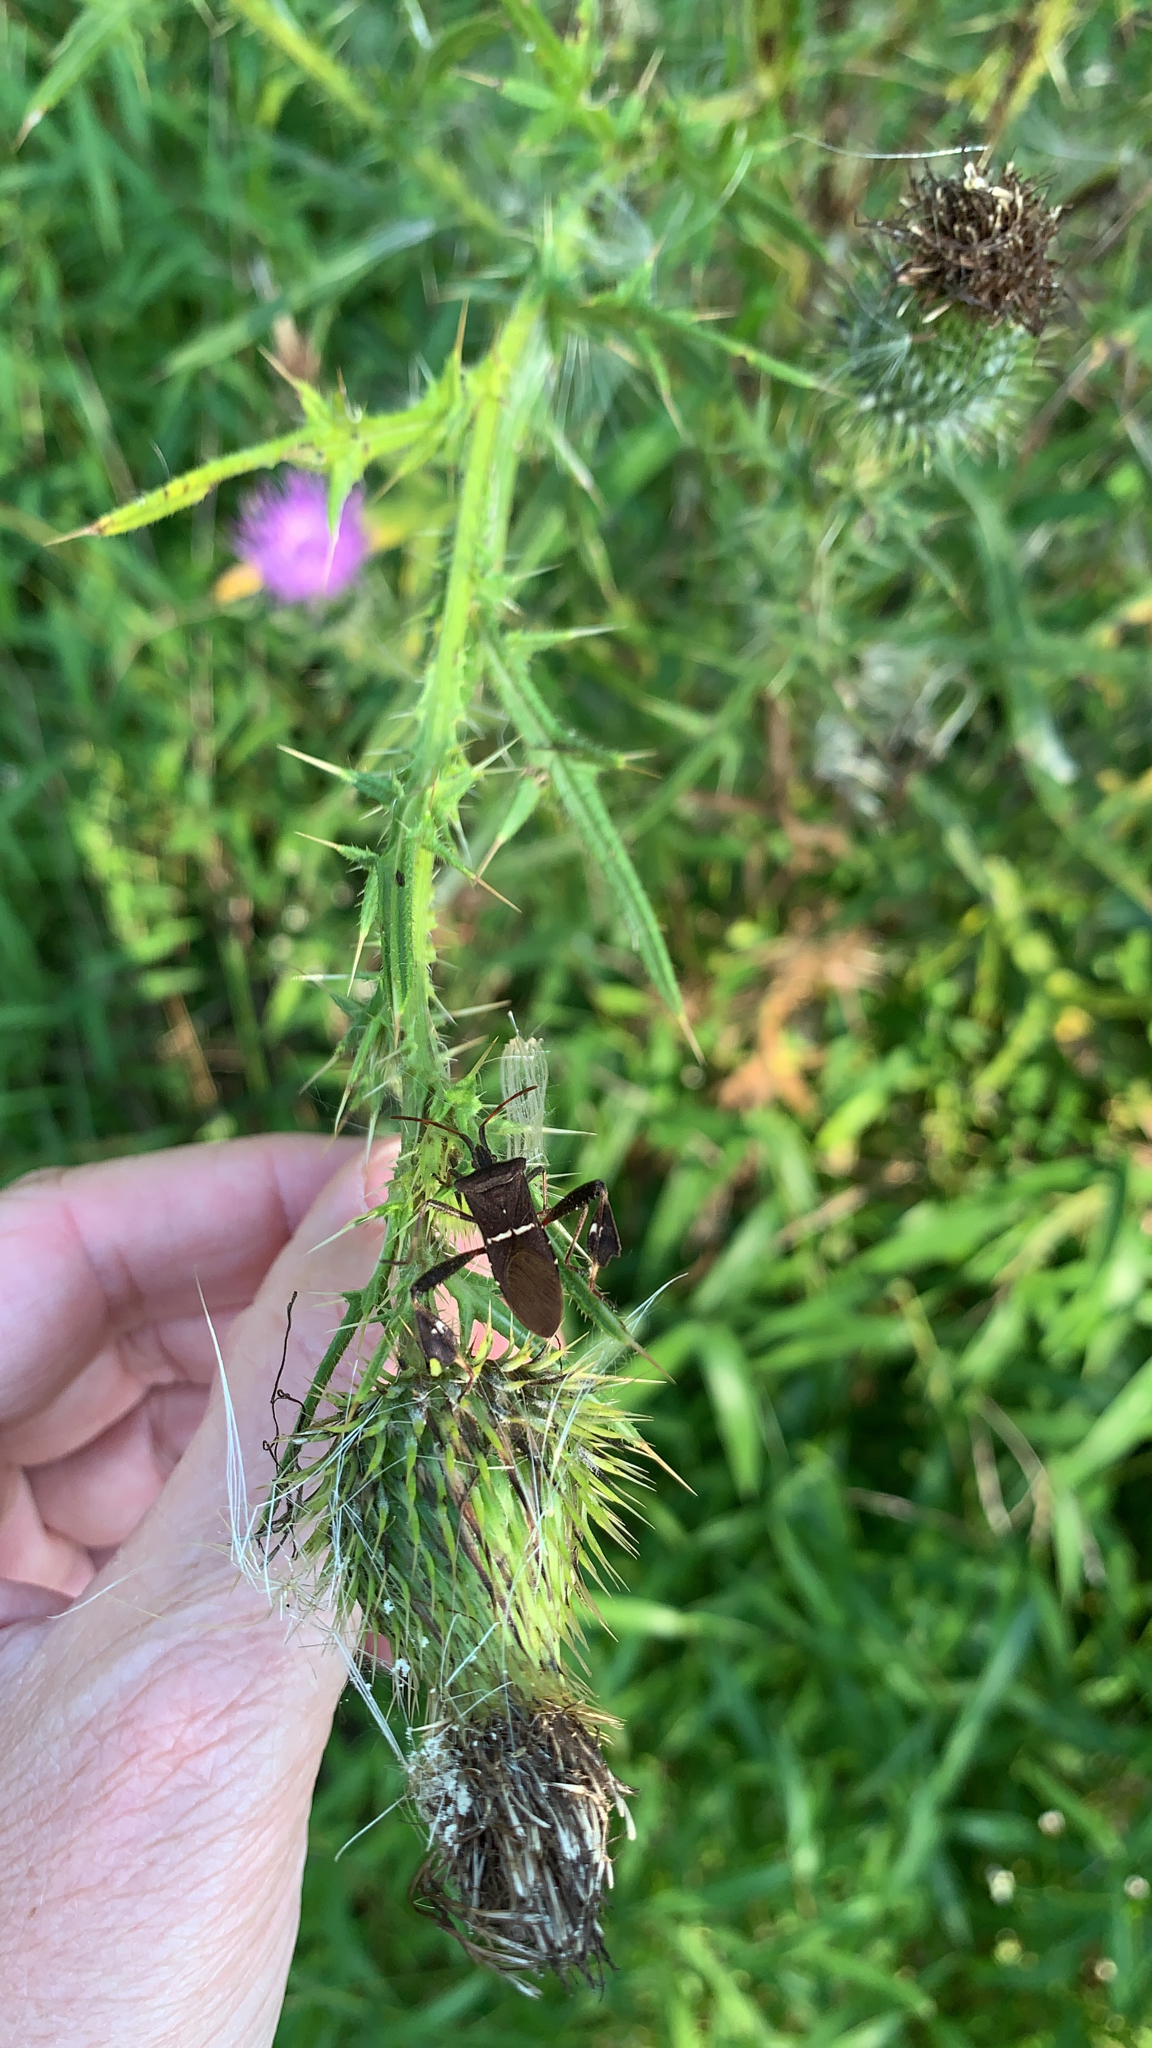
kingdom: Animalia
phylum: Arthropoda
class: Insecta
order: Hemiptera
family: Coreidae
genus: Leptoglossus
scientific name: Leptoglossus phyllopus
